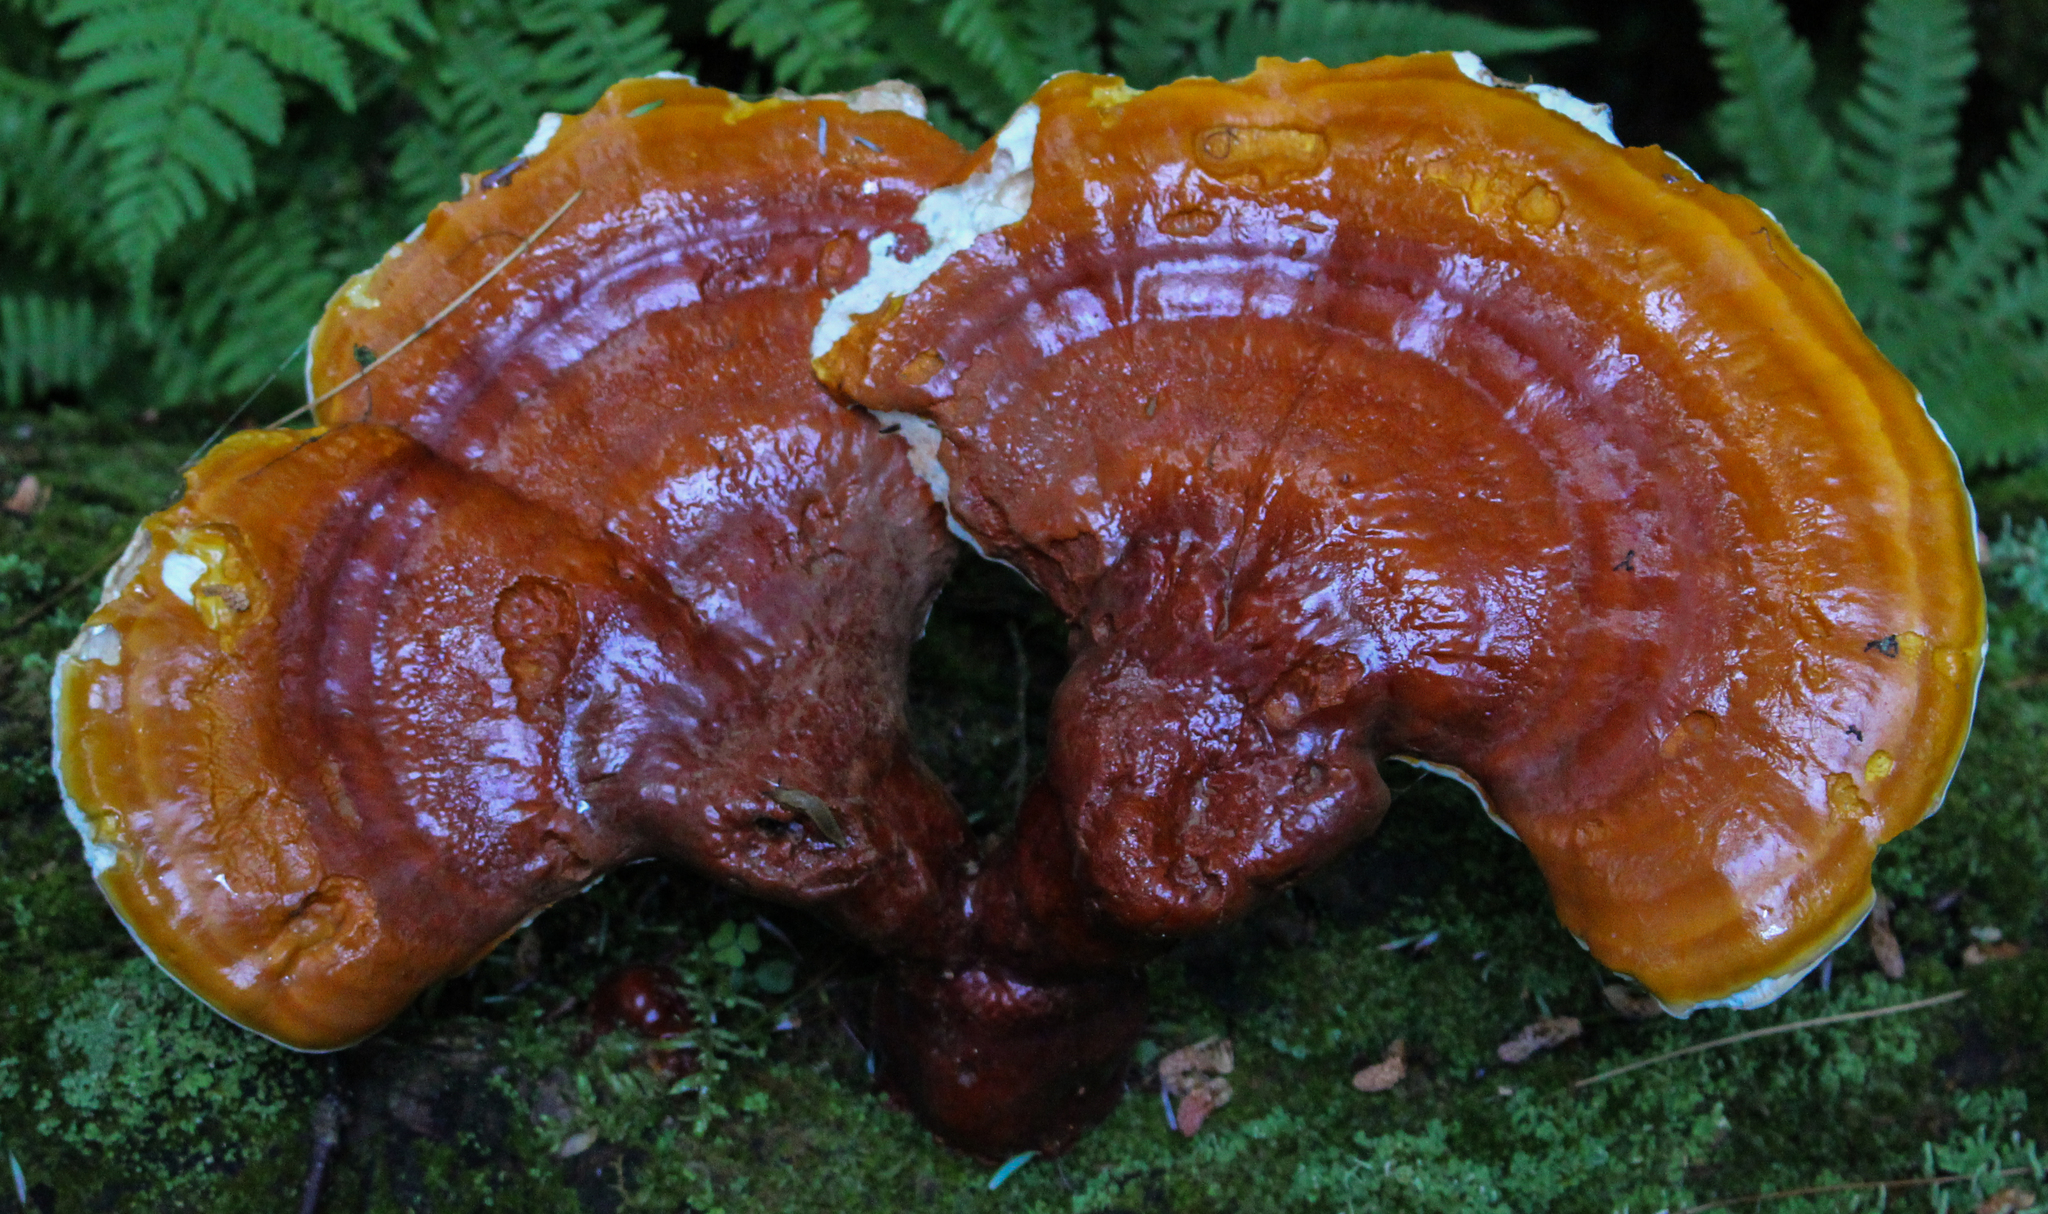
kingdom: Fungi
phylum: Basidiomycota
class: Agaricomycetes
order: Polyporales
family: Polyporaceae
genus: Ganoderma
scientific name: Ganoderma tsugae
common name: Hemlock varnish shelf
